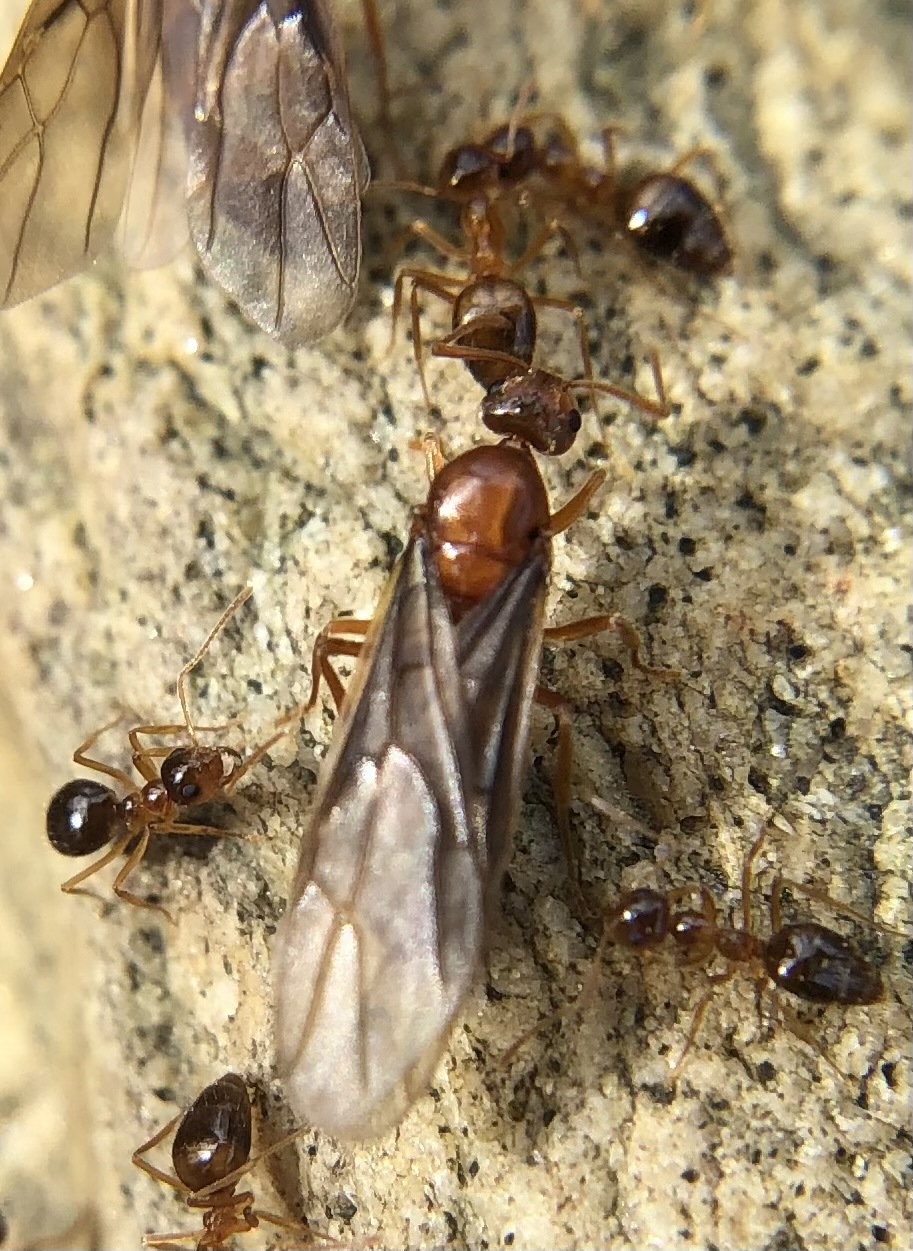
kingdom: Animalia
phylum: Arthropoda
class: Insecta
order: Hymenoptera
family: Formicidae
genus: Prenolepis
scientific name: Prenolepis imparis
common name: Small honey ant
